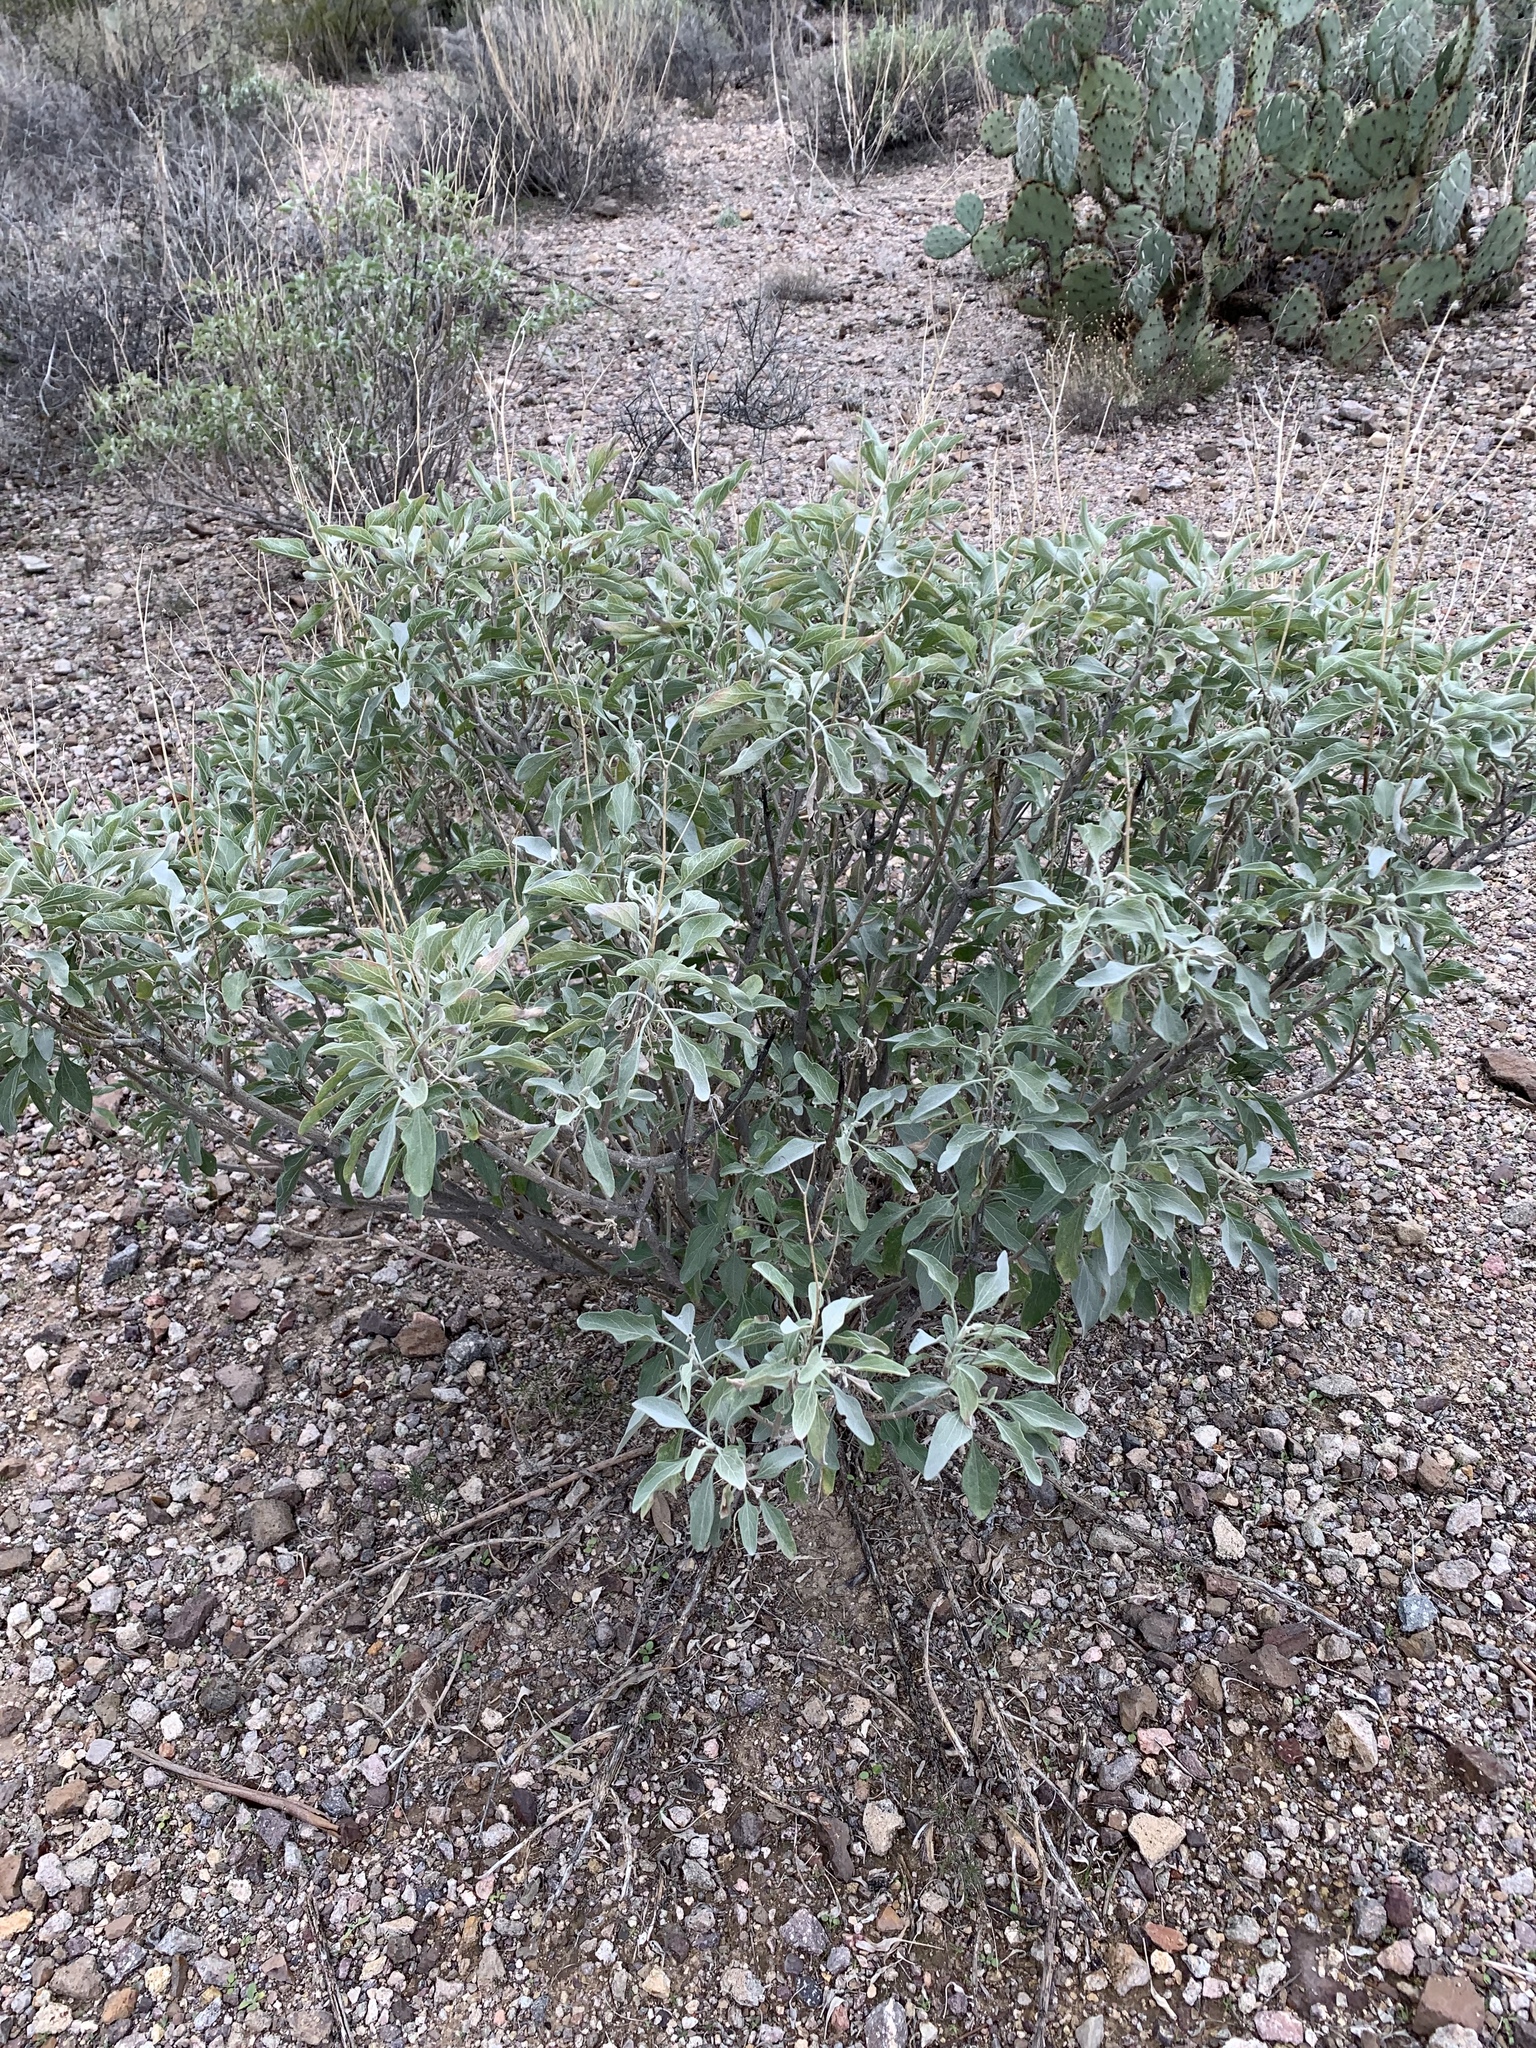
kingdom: Plantae
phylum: Tracheophyta
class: Magnoliopsida
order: Asterales
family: Asteraceae
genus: Encelia
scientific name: Encelia farinosa
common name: Brittlebush
